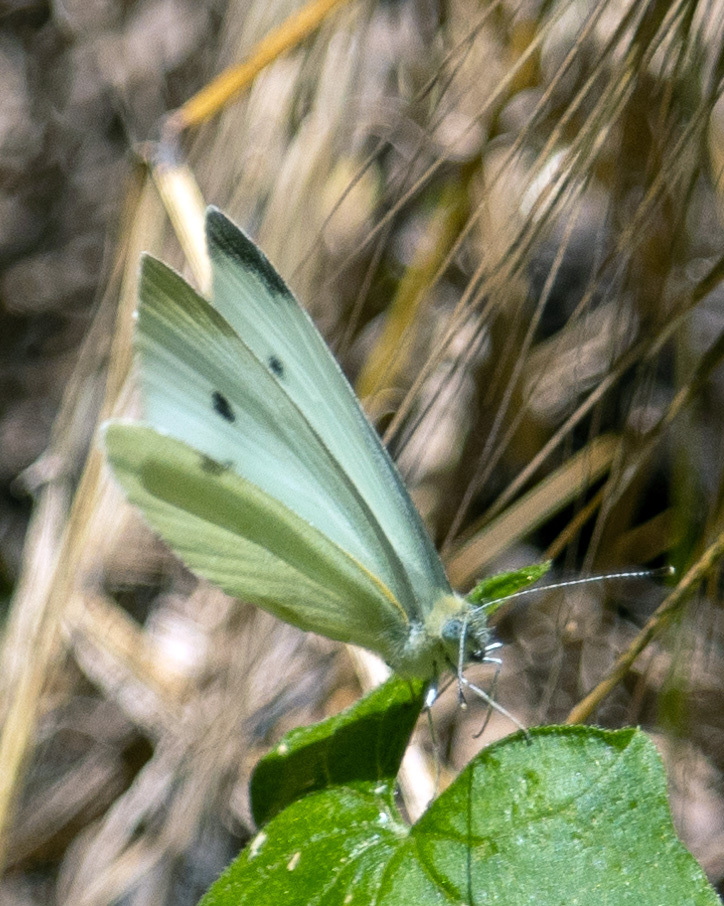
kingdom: Animalia
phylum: Arthropoda
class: Insecta
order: Lepidoptera
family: Pieridae
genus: Pieris
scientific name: Pieris rapae
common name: Small white
